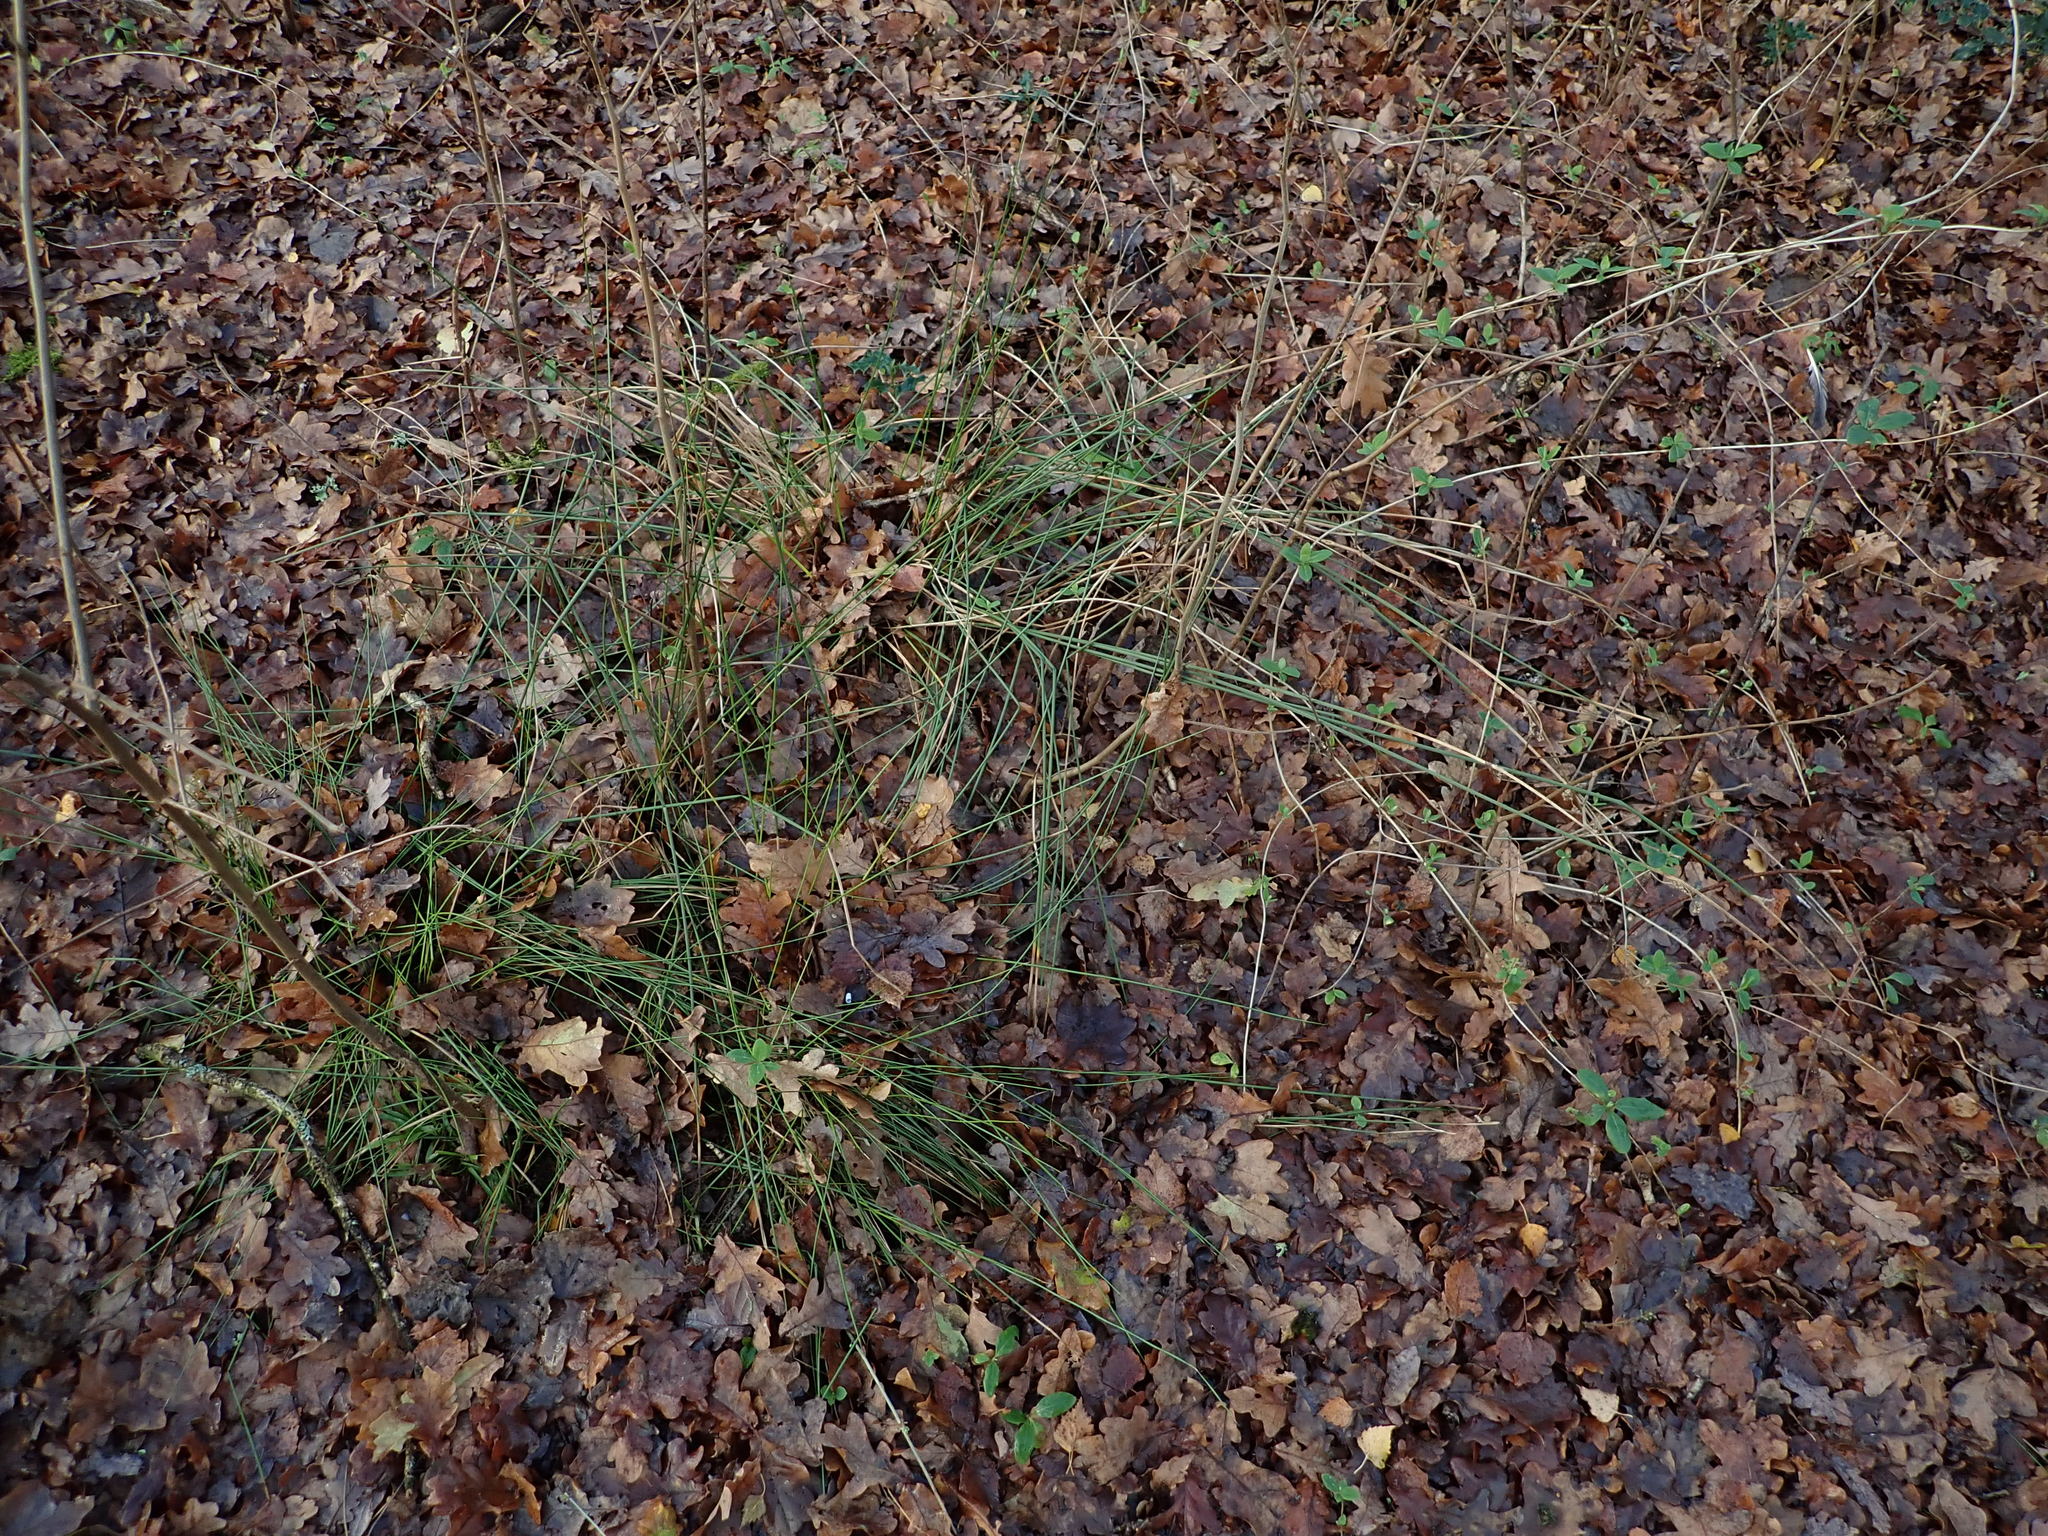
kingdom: Plantae
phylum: Tracheophyta
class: Liliopsida
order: Poales
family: Juncaceae
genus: Juncus
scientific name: Juncus effusus
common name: Soft rush
